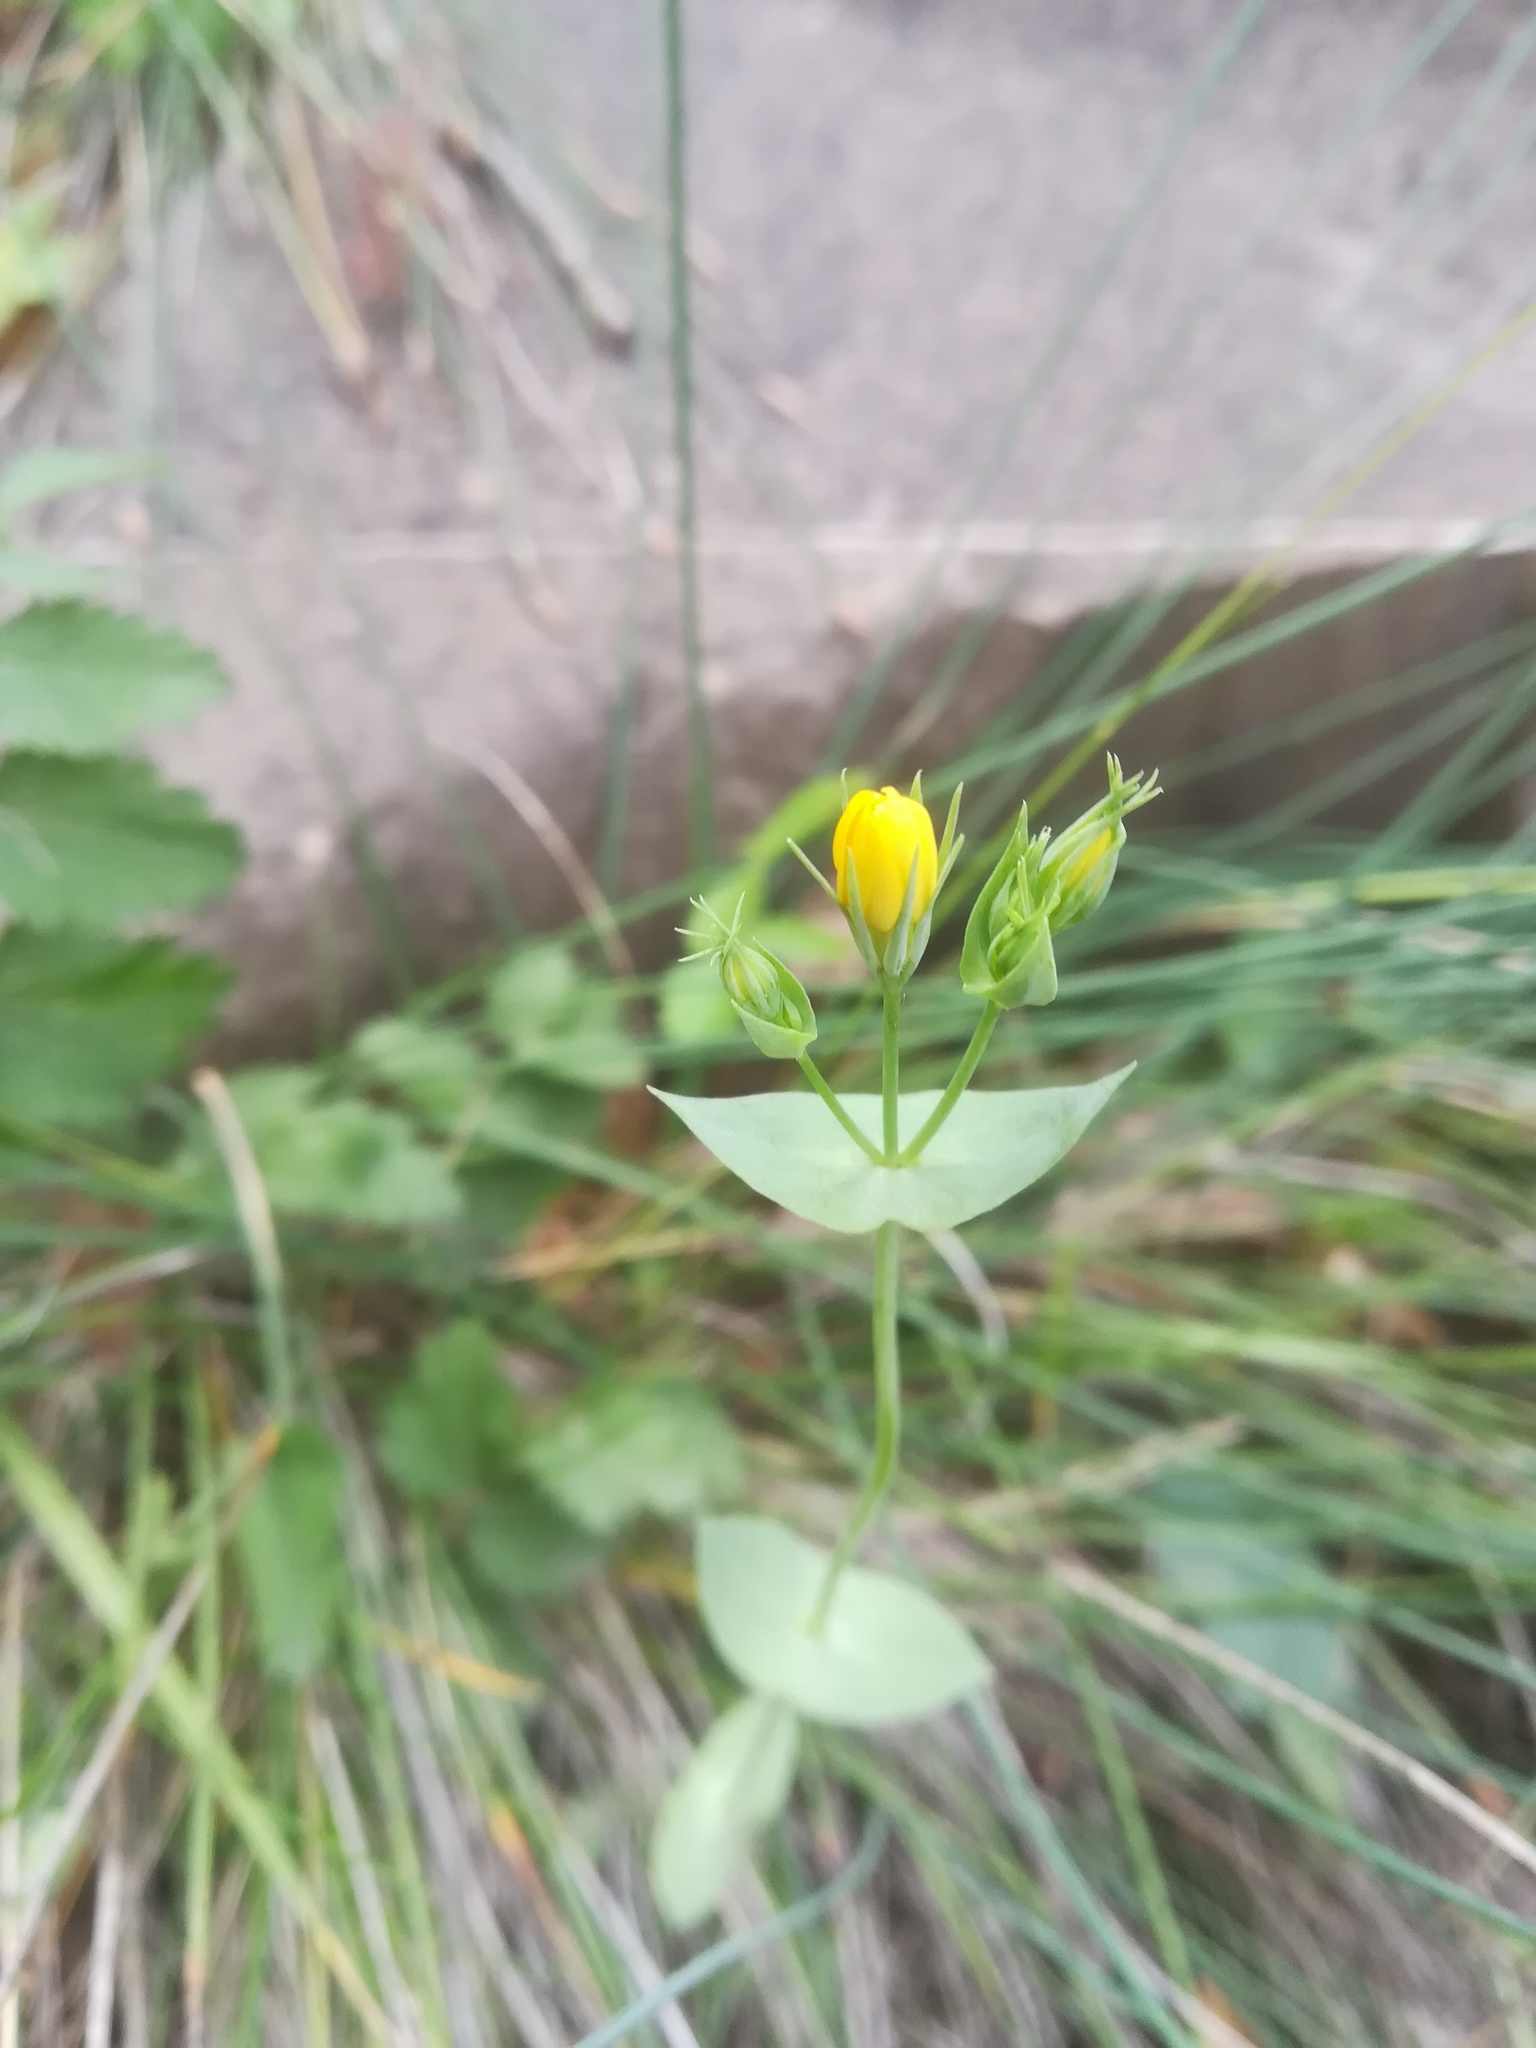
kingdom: Plantae
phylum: Tracheophyta
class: Magnoliopsida
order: Gentianales
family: Gentianaceae
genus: Blackstonia
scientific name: Blackstonia perfoliata
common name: Yellow-wort
